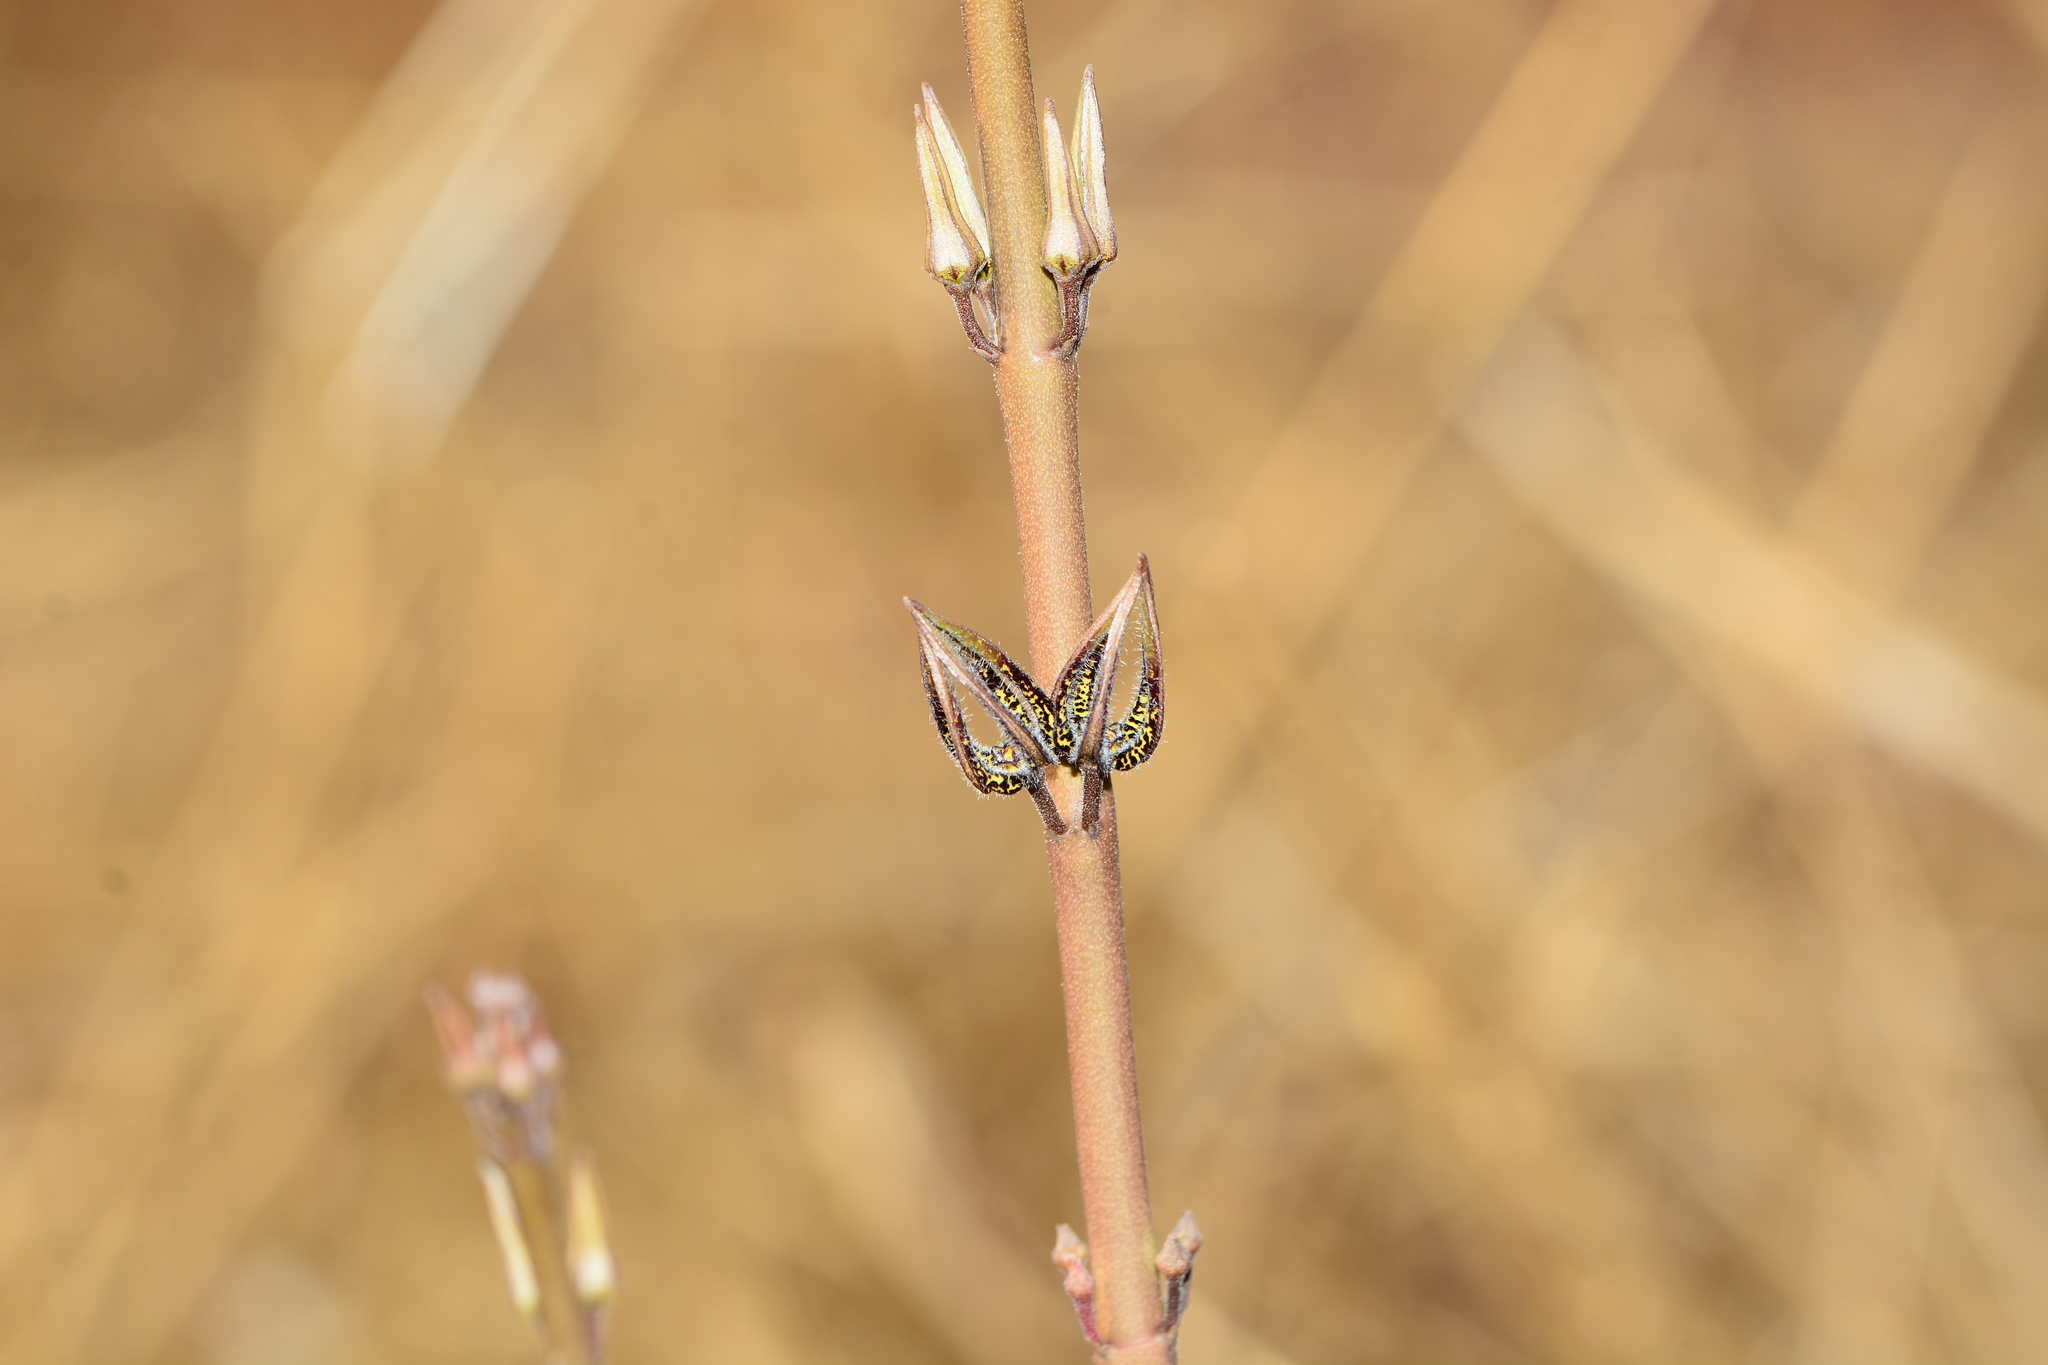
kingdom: Plantae
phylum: Tracheophyta
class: Magnoliopsida
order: Gentianales
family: Apocynaceae
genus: Ceropegia
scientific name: Ceropegia malwanensis
